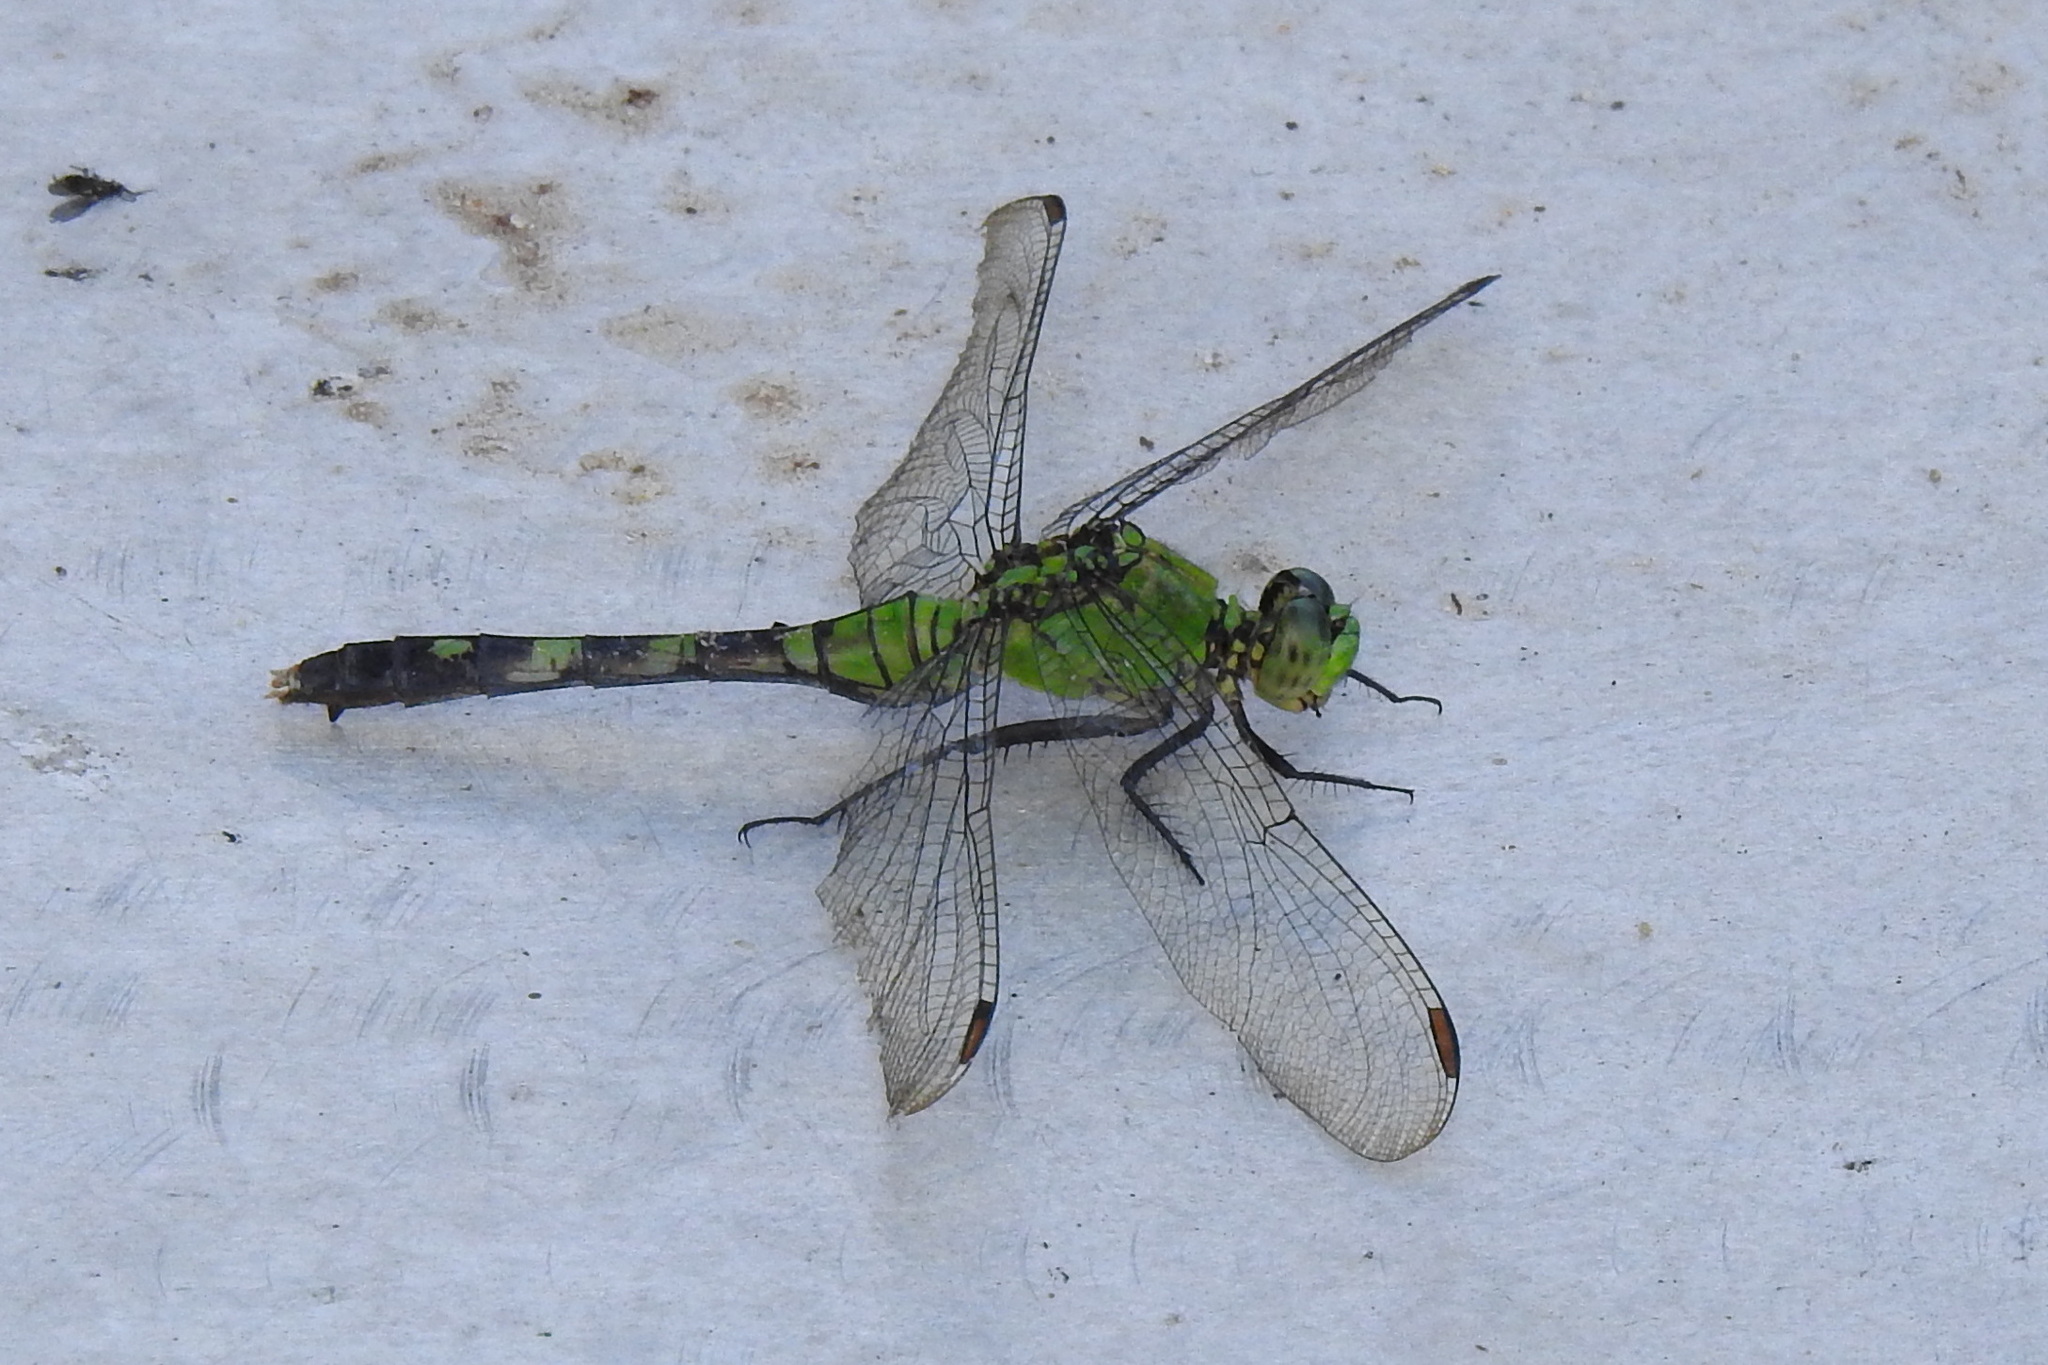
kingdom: Animalia
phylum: Arthropoda
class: Insecta
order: Odonata
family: Libellulidae
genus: Erythemis
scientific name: Erythemis simplicicollis
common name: Eastern pondhawk
